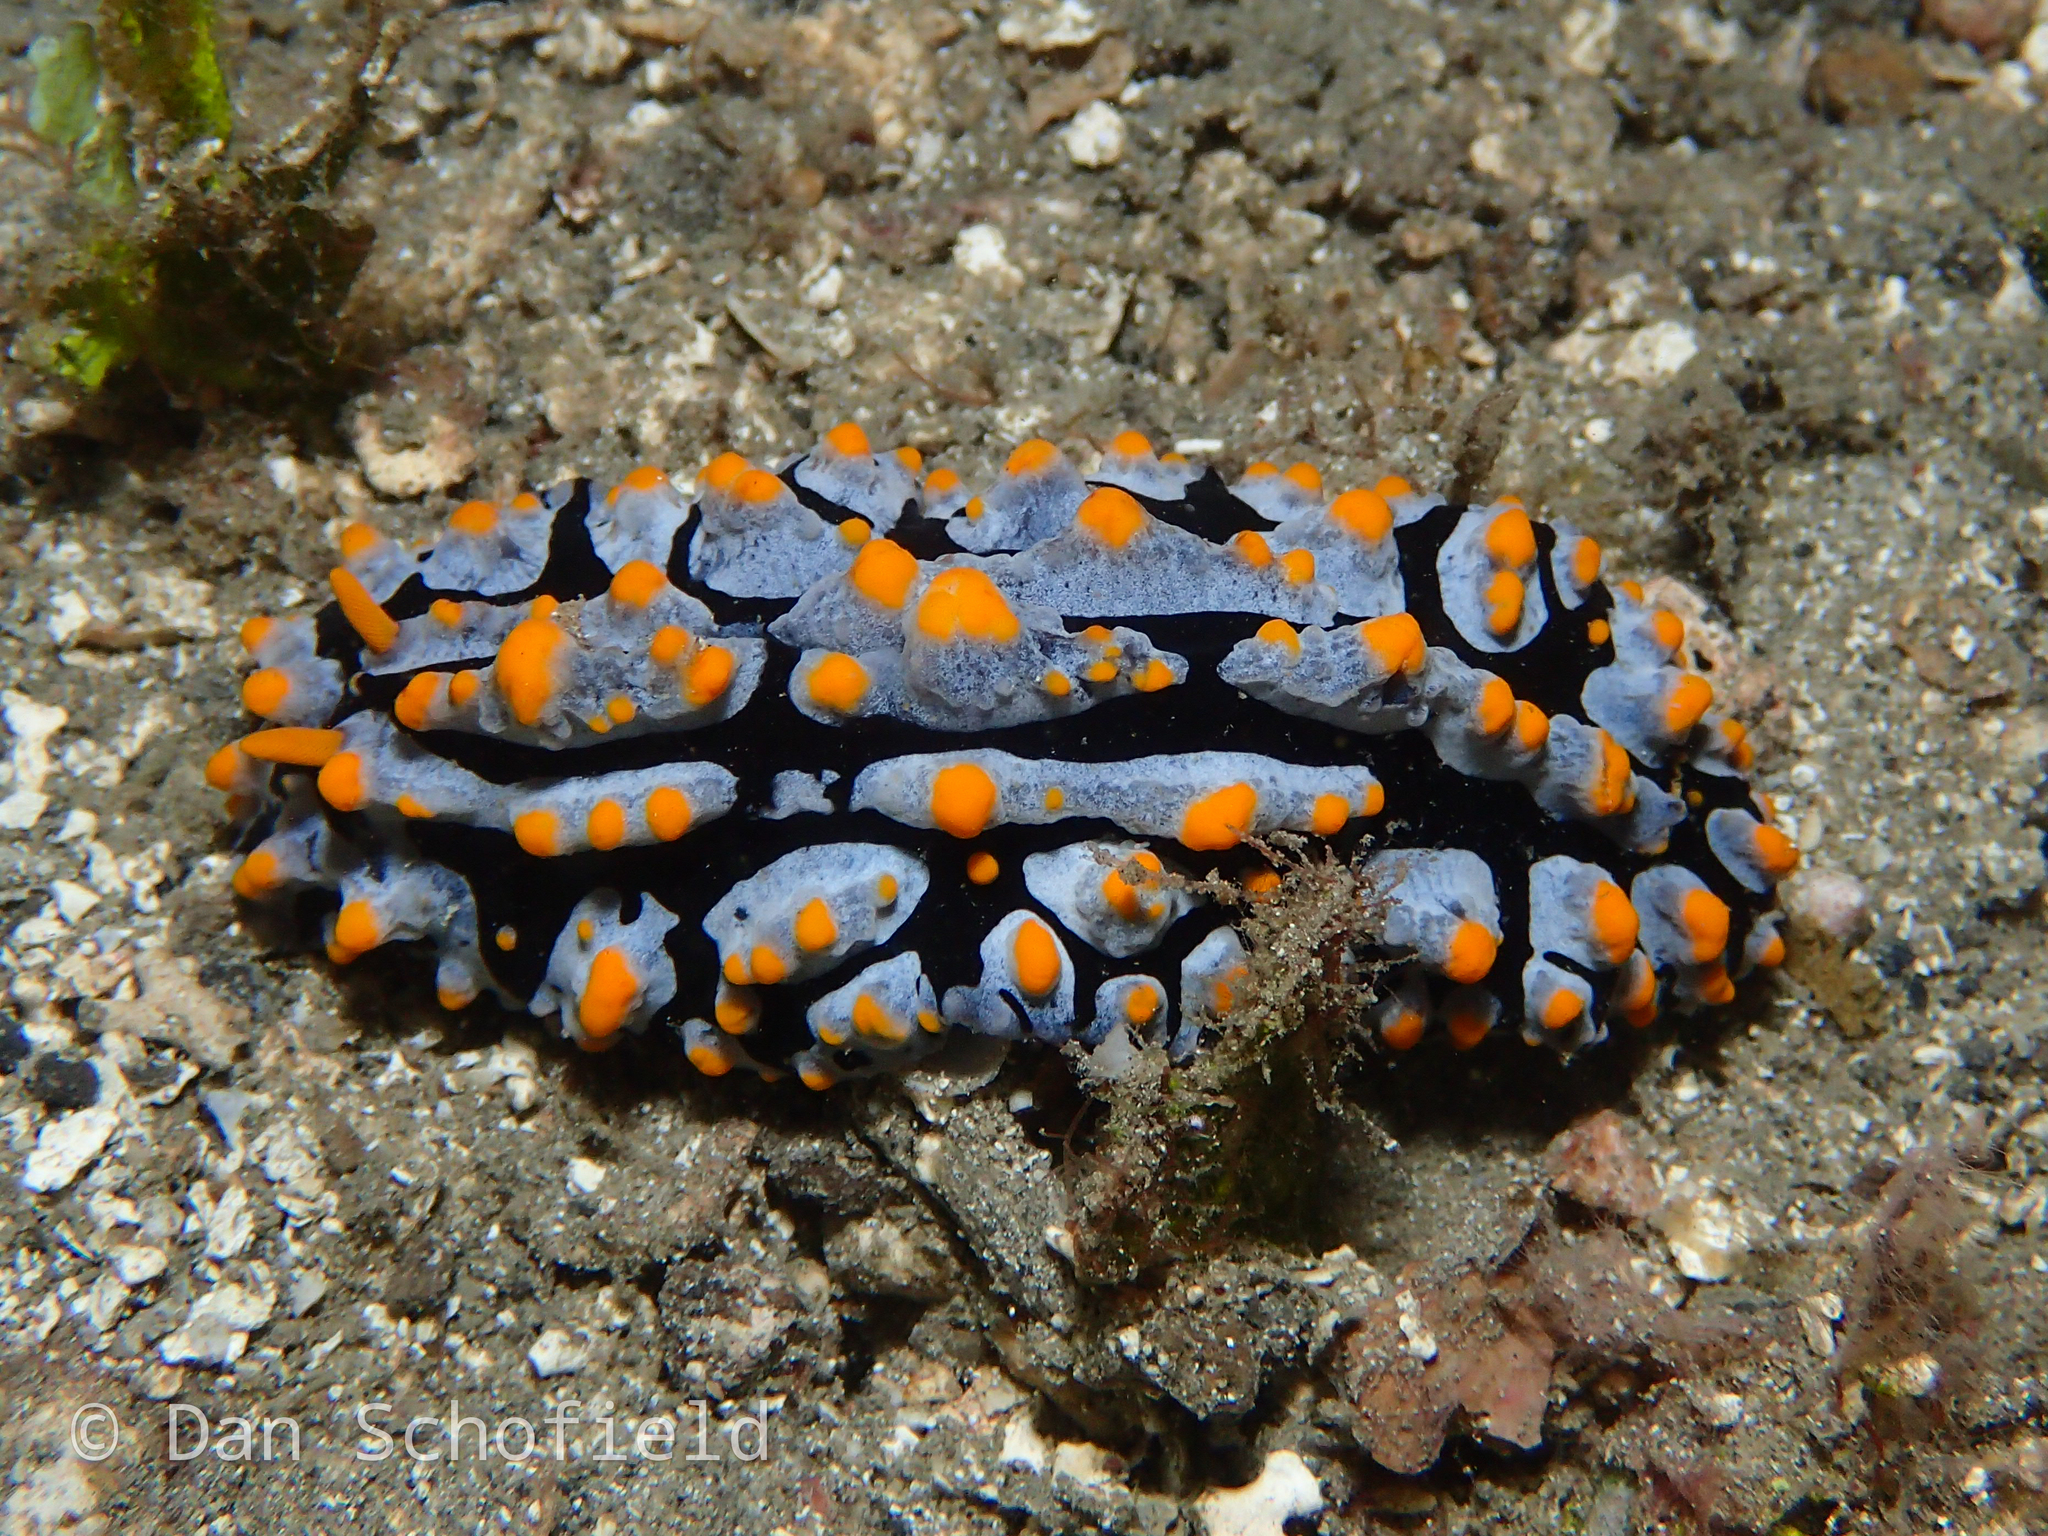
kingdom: Animalia
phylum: Mollusca
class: Gastropoda
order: Nudibranchia
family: Phyllidiidae
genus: Phyllidia
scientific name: Phyllidia varicosa
